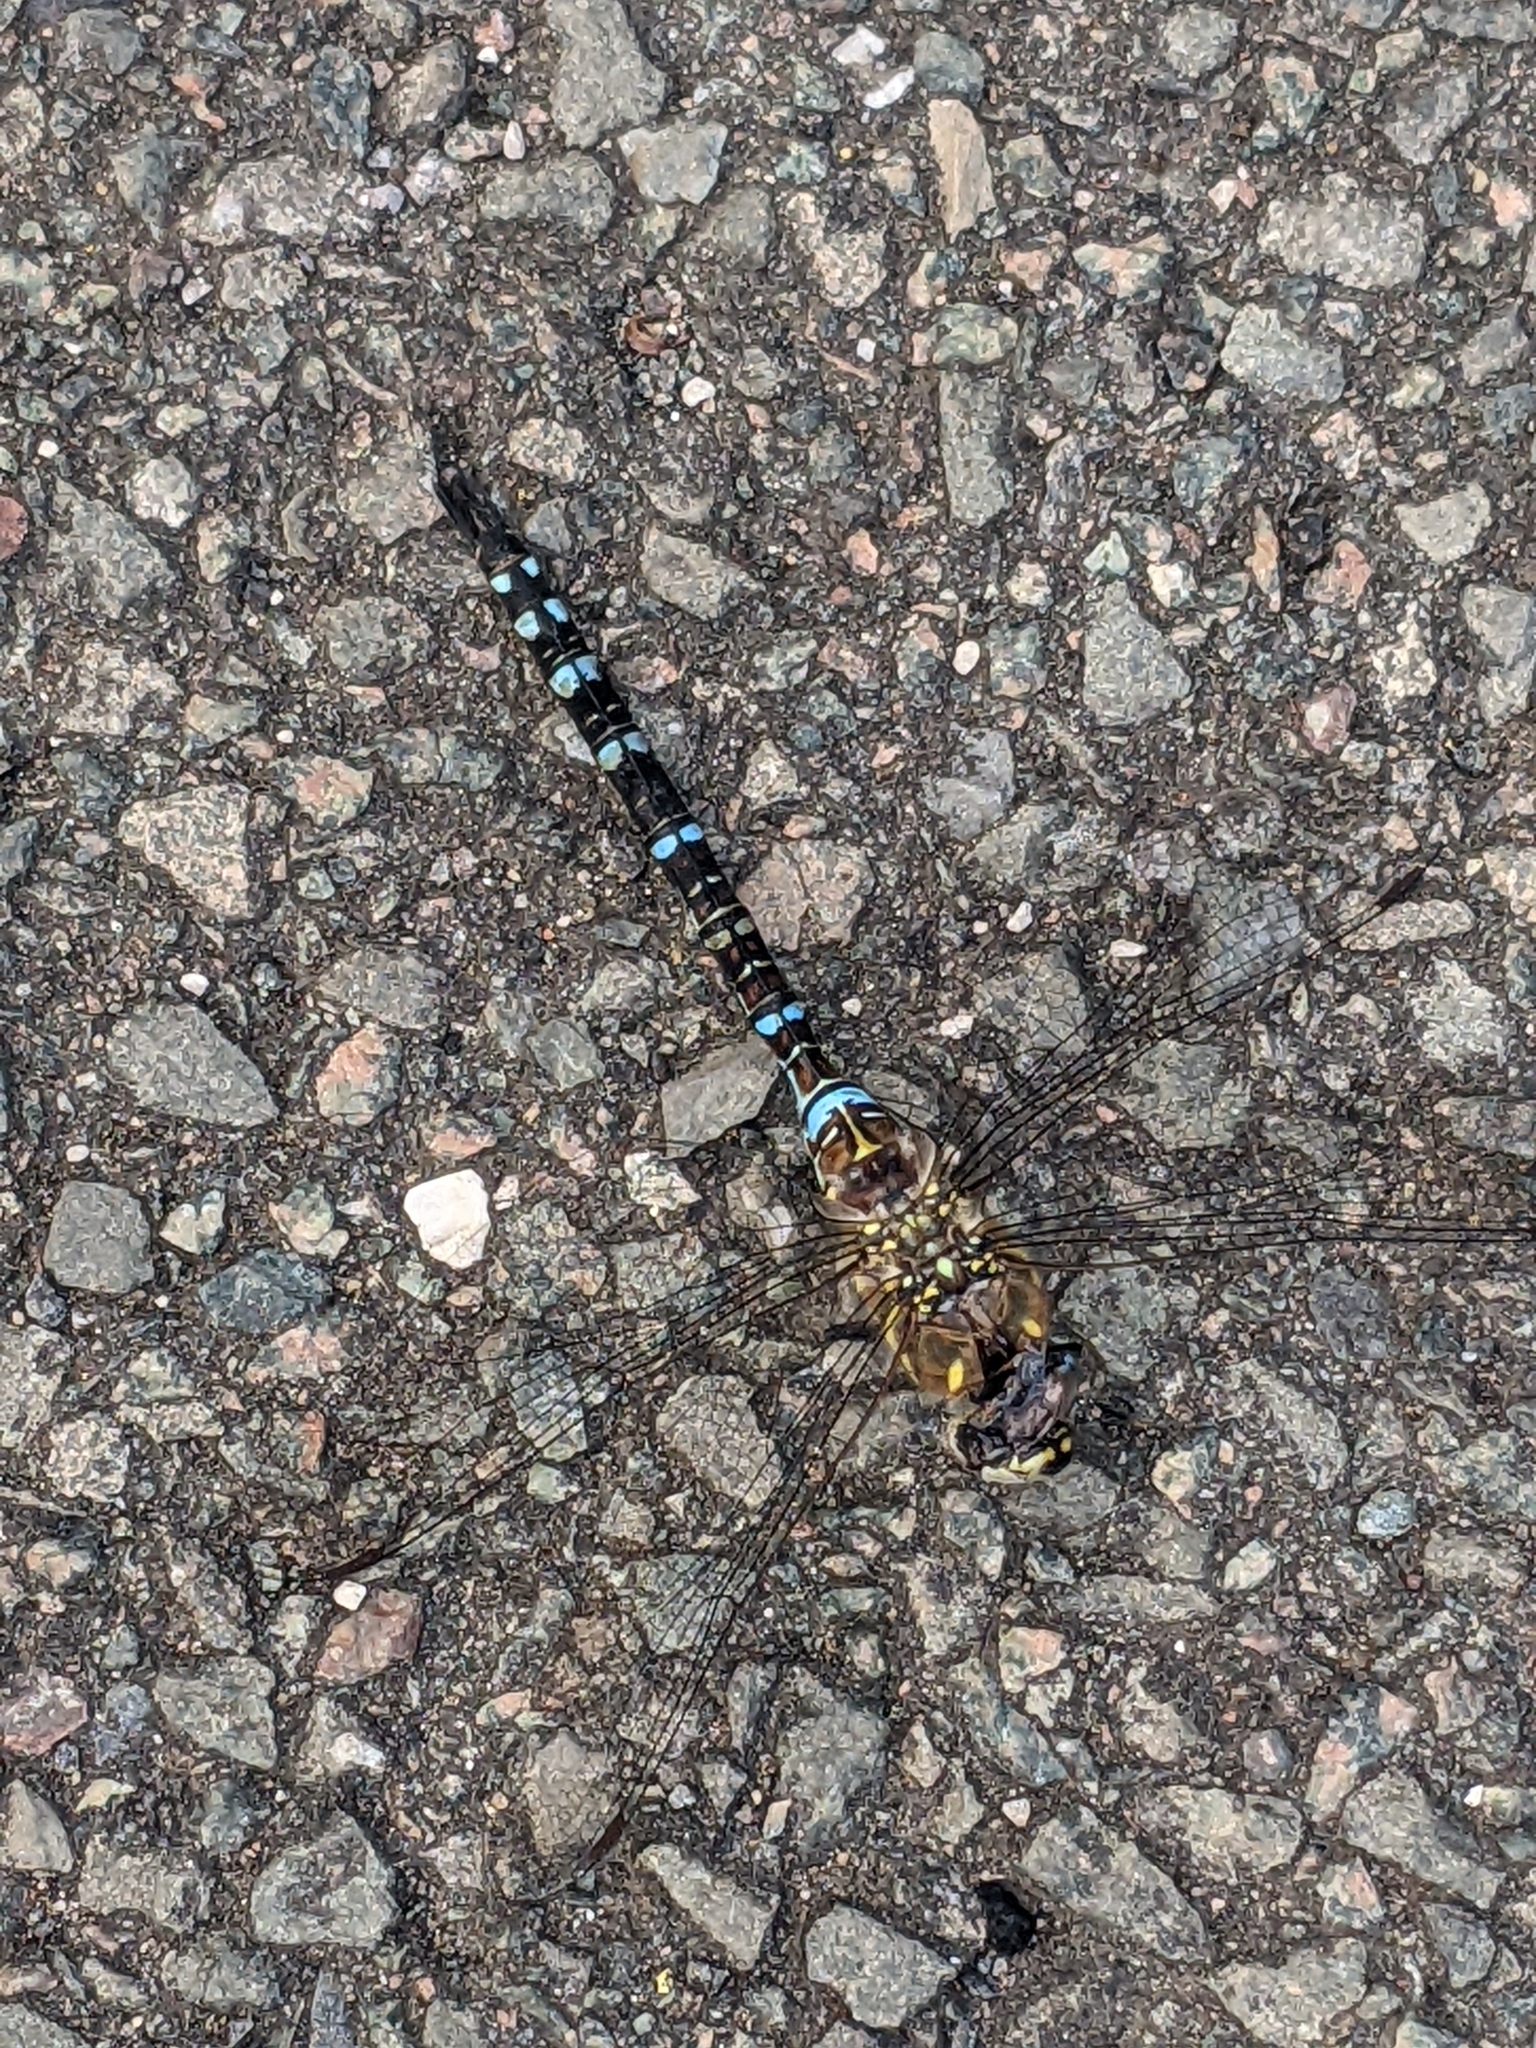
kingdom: Animalia
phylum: Arthropoda
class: Insecta
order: Odonata
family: Aeshnidae
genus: Aeshna
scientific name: Aeshna mixta
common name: Migrant hawker
